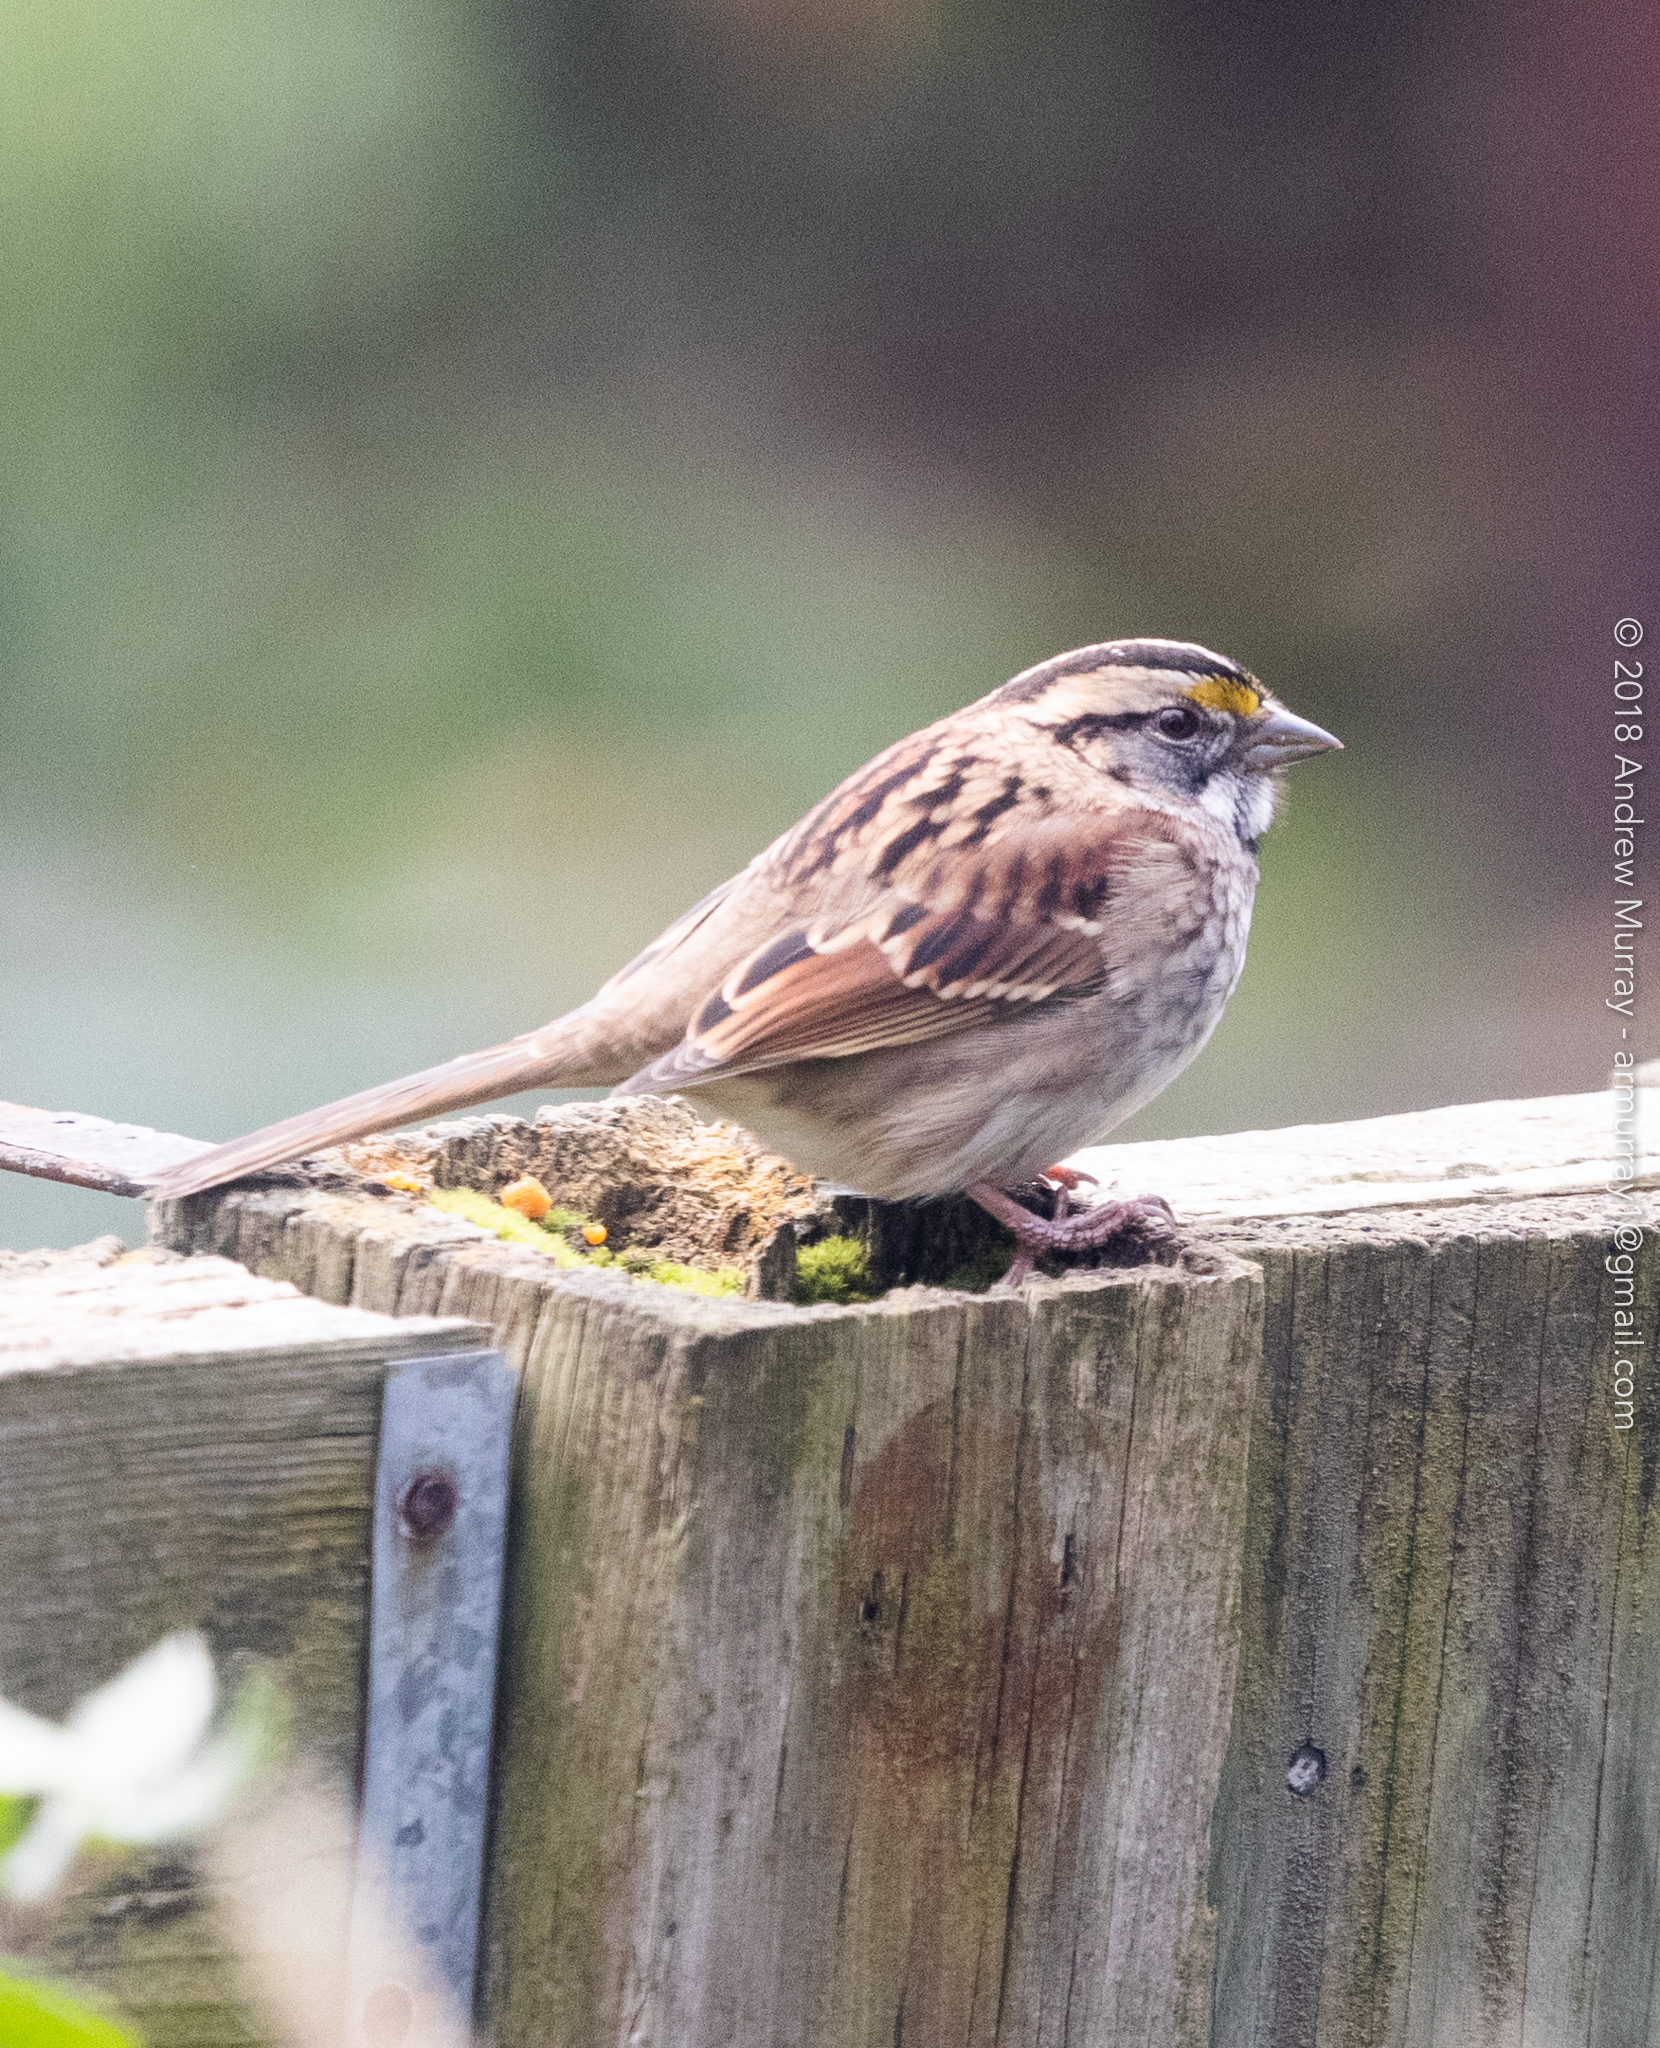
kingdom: Animalia
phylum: Chordata
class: Aves
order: Passeriformes
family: Passerellidae
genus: Zonotrichia
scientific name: Zonotrichia albicollis
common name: White-throated sparrow
